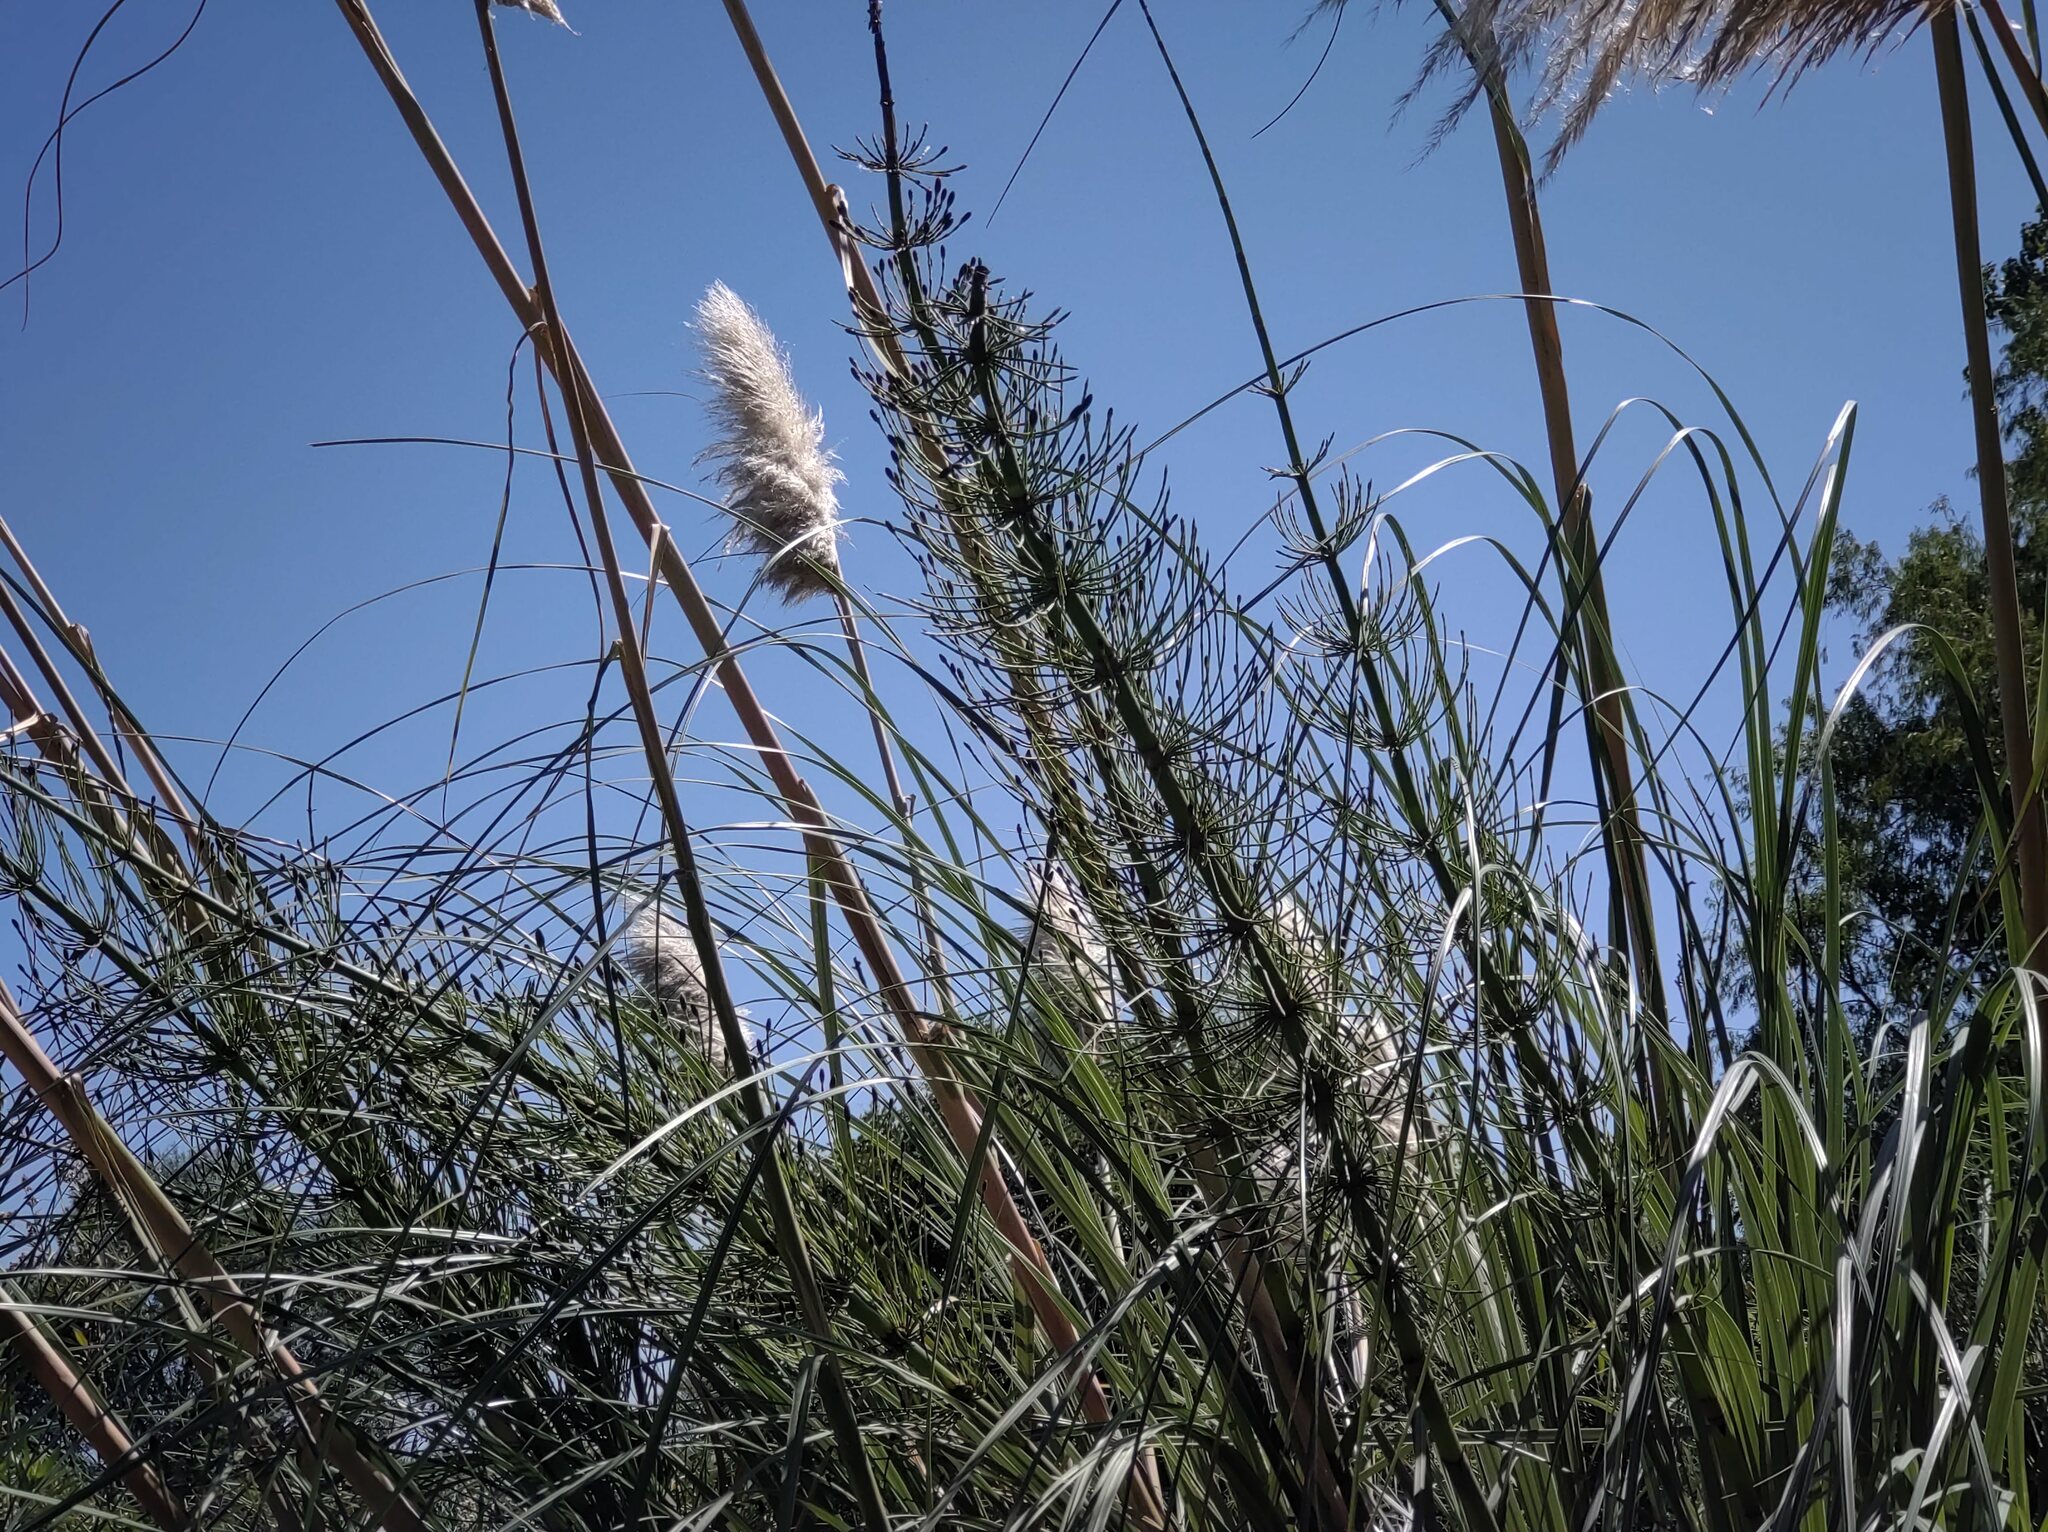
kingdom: Plantae
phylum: Tracheophyta
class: Polypodiopsida
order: Equisetales
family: Equisetaceae
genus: Equisetum
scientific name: Equisetum giganteum
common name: Giant horsetail
